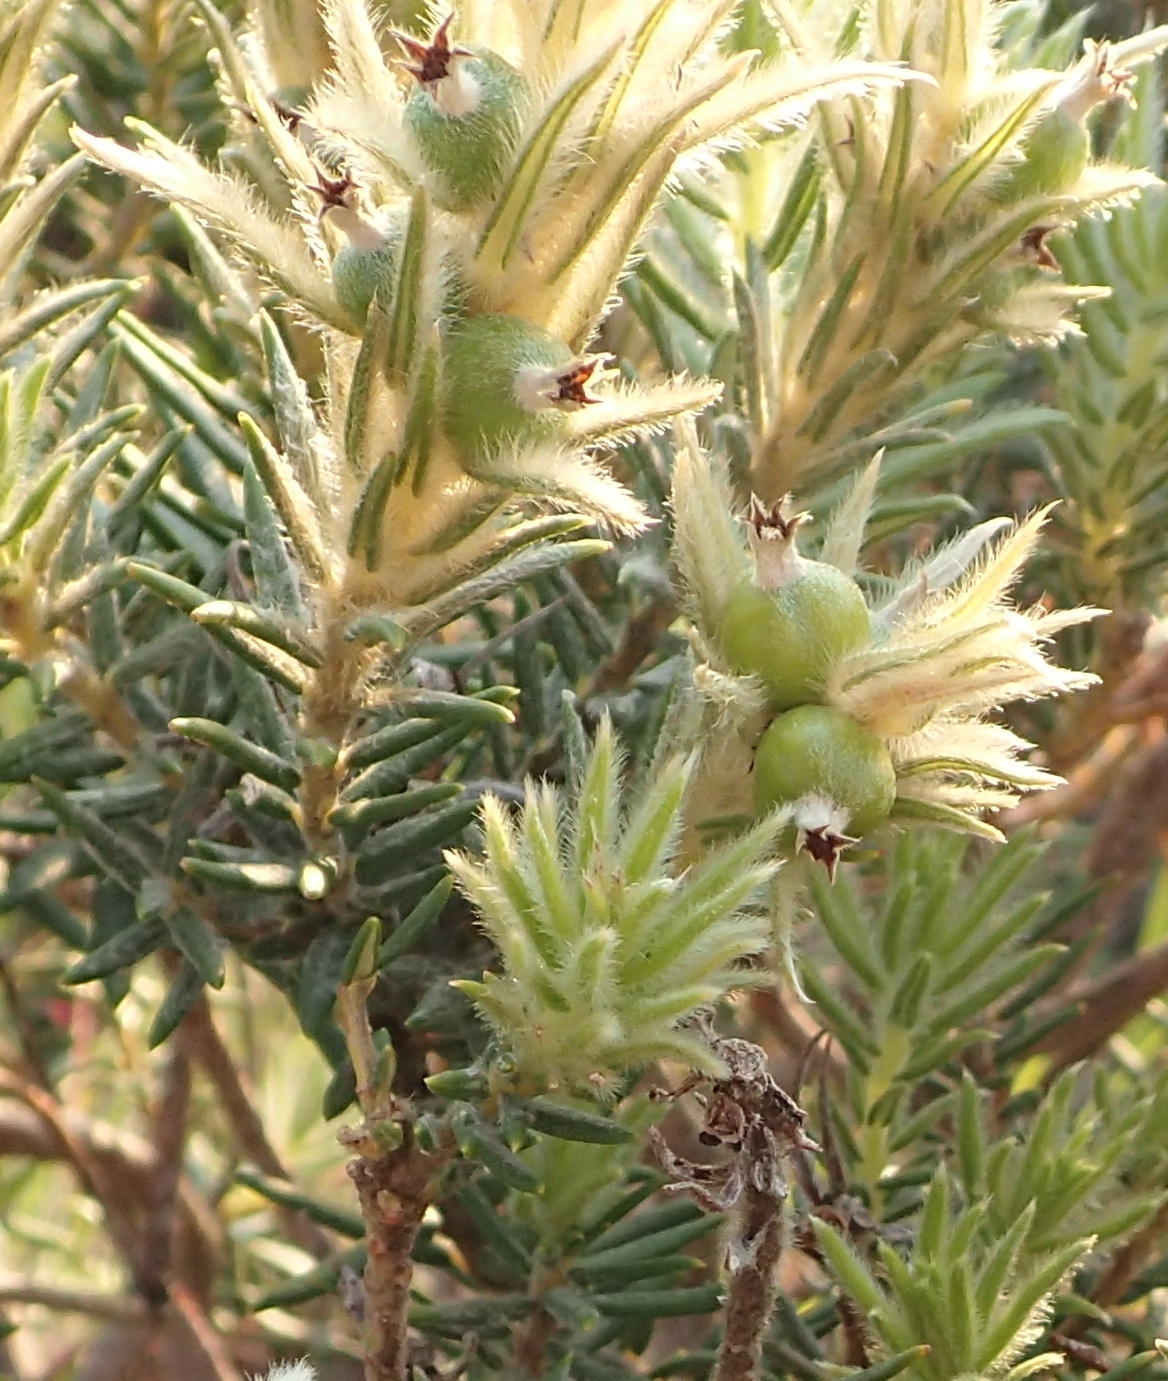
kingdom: Plantae
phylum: Tracheophyta
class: Magnoliopsida
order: Rosales
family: Rhamnaceae
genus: Phylica
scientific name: Phylica pubescens
